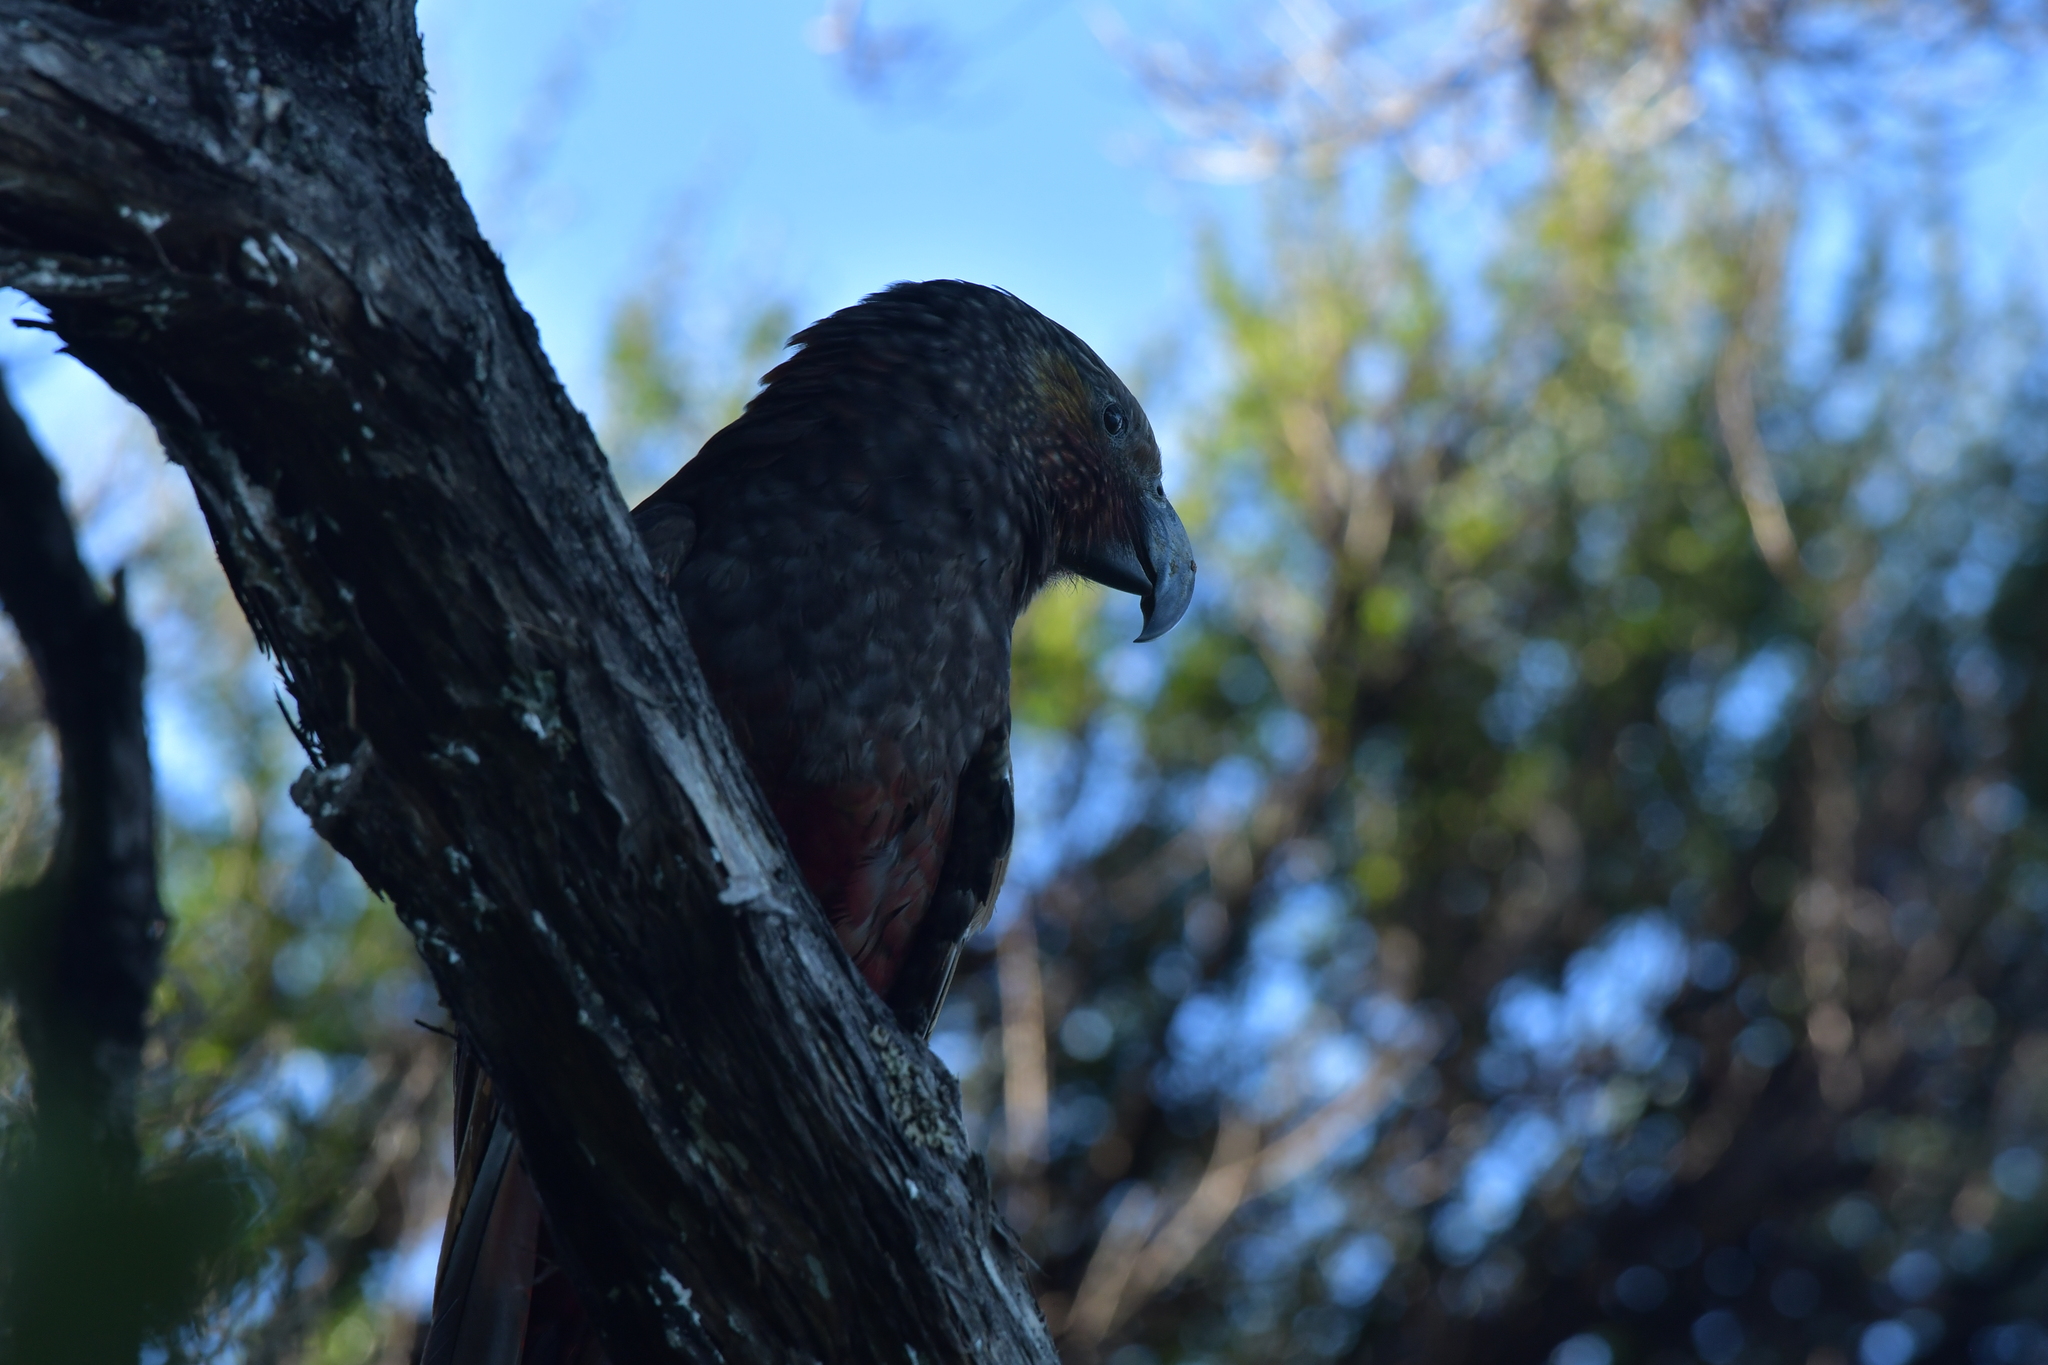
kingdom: Animalia
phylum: Chordata
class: Aves
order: Psittaciformes
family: Psittacidae
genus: Nestor
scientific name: Nestor meridionalis
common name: New zealand kaka
